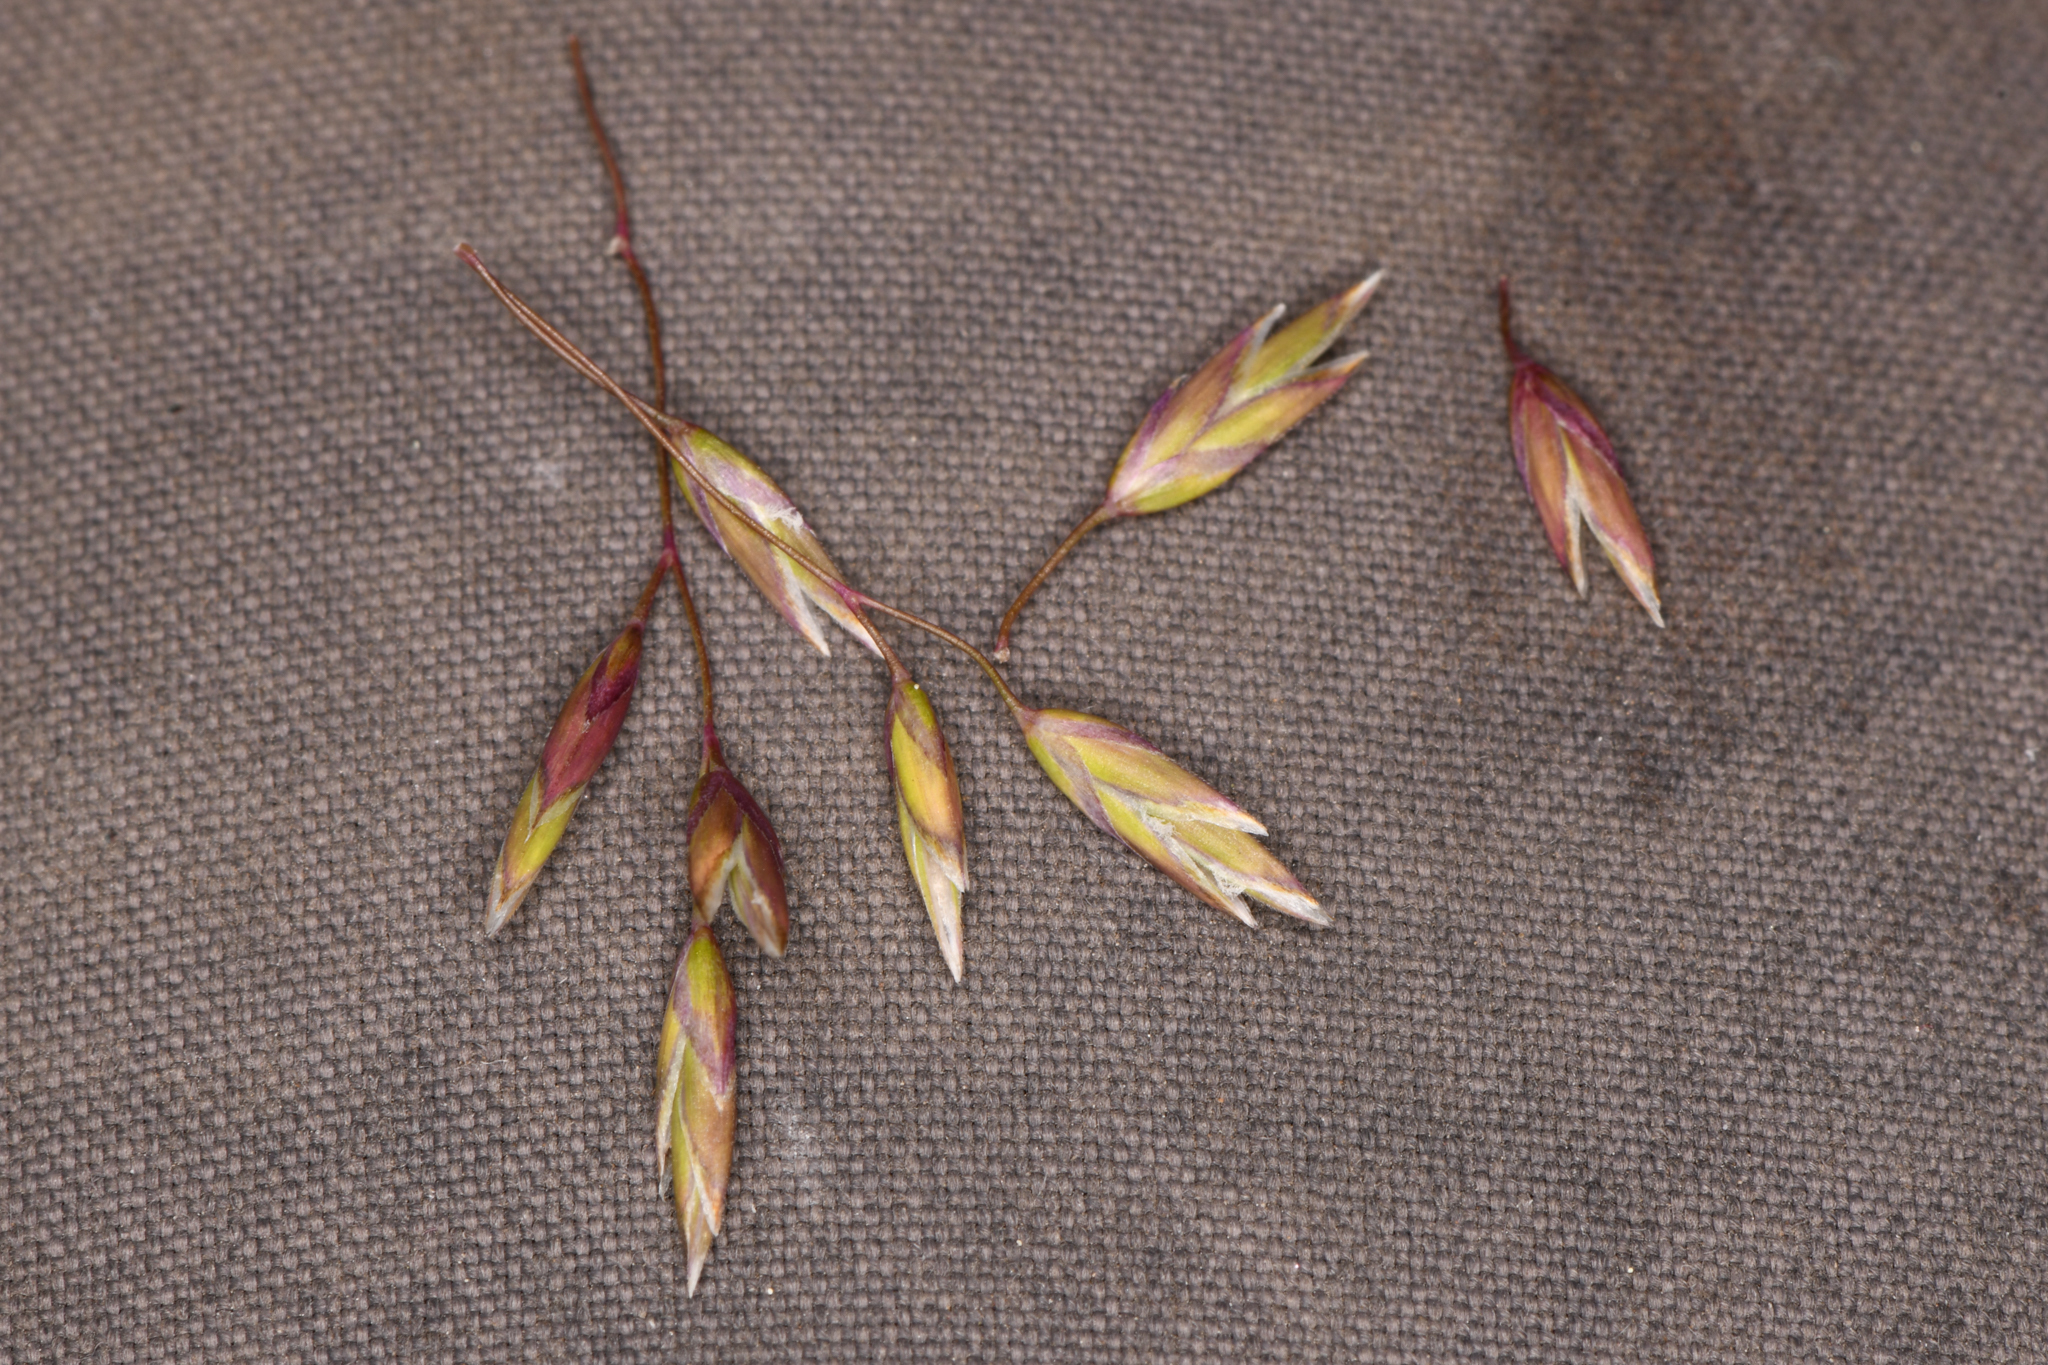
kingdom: Plantae
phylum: Tracheophyta
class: Liliopsida
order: Poales
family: Poaceae
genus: Poa
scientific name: Poa wheeleri
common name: Wheeler's bluegrass
